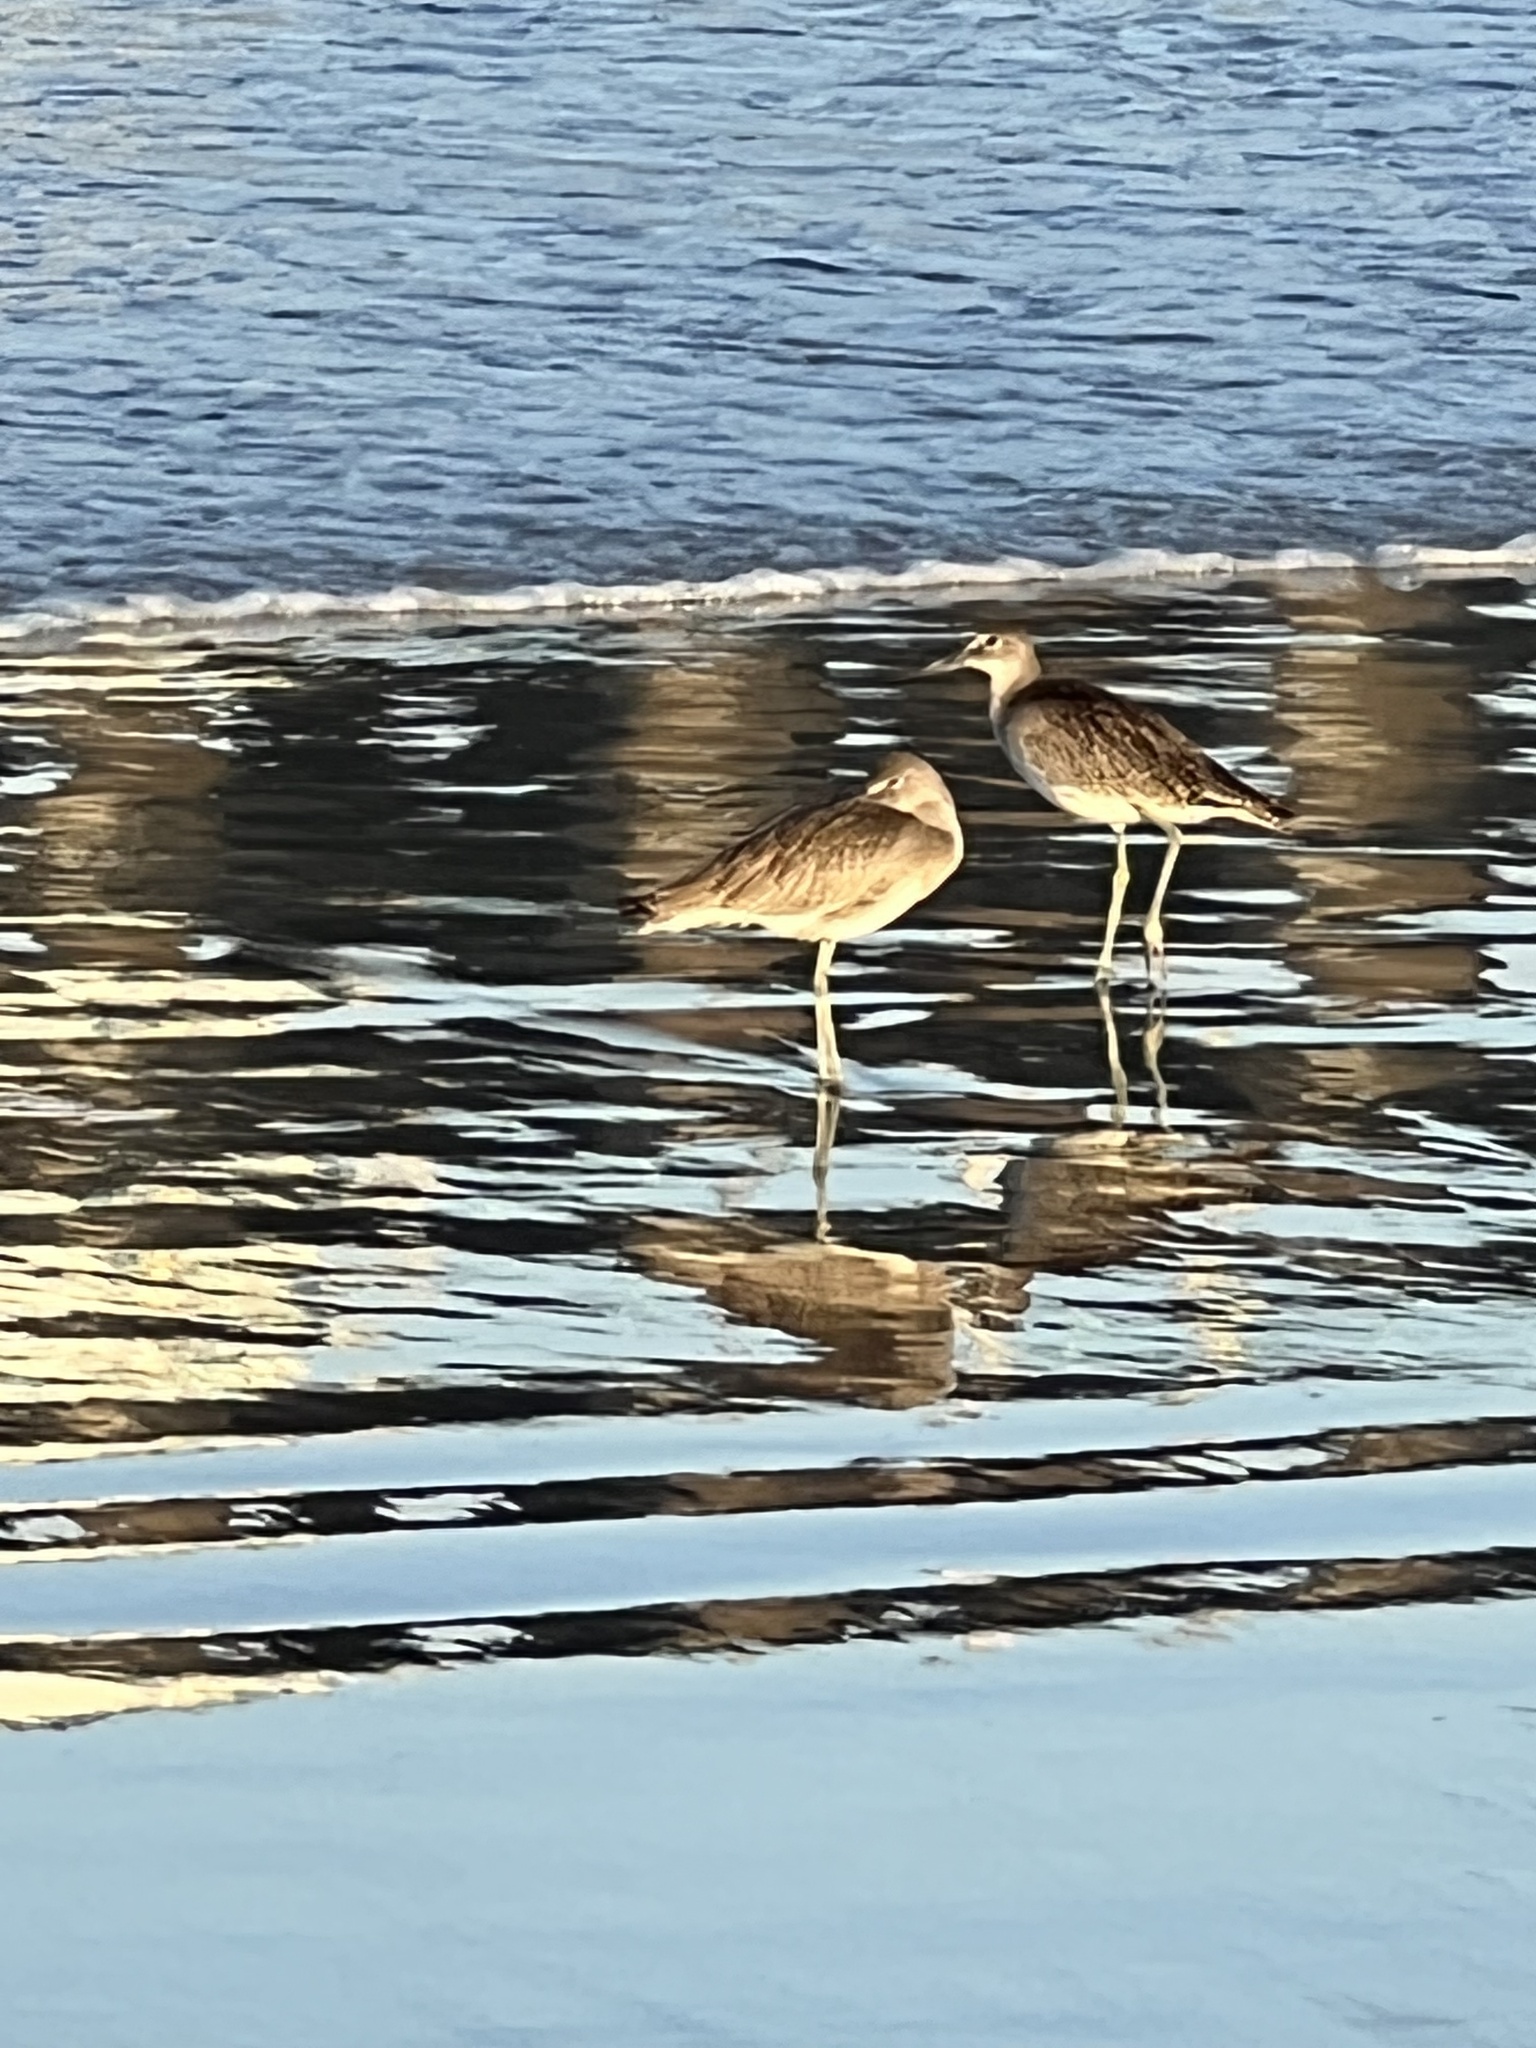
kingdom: Animalia
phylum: Chordata
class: Aves
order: Charadriiformes
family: Scolopacidae
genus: Tringa
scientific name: Tringa semipalmata
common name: Willet
